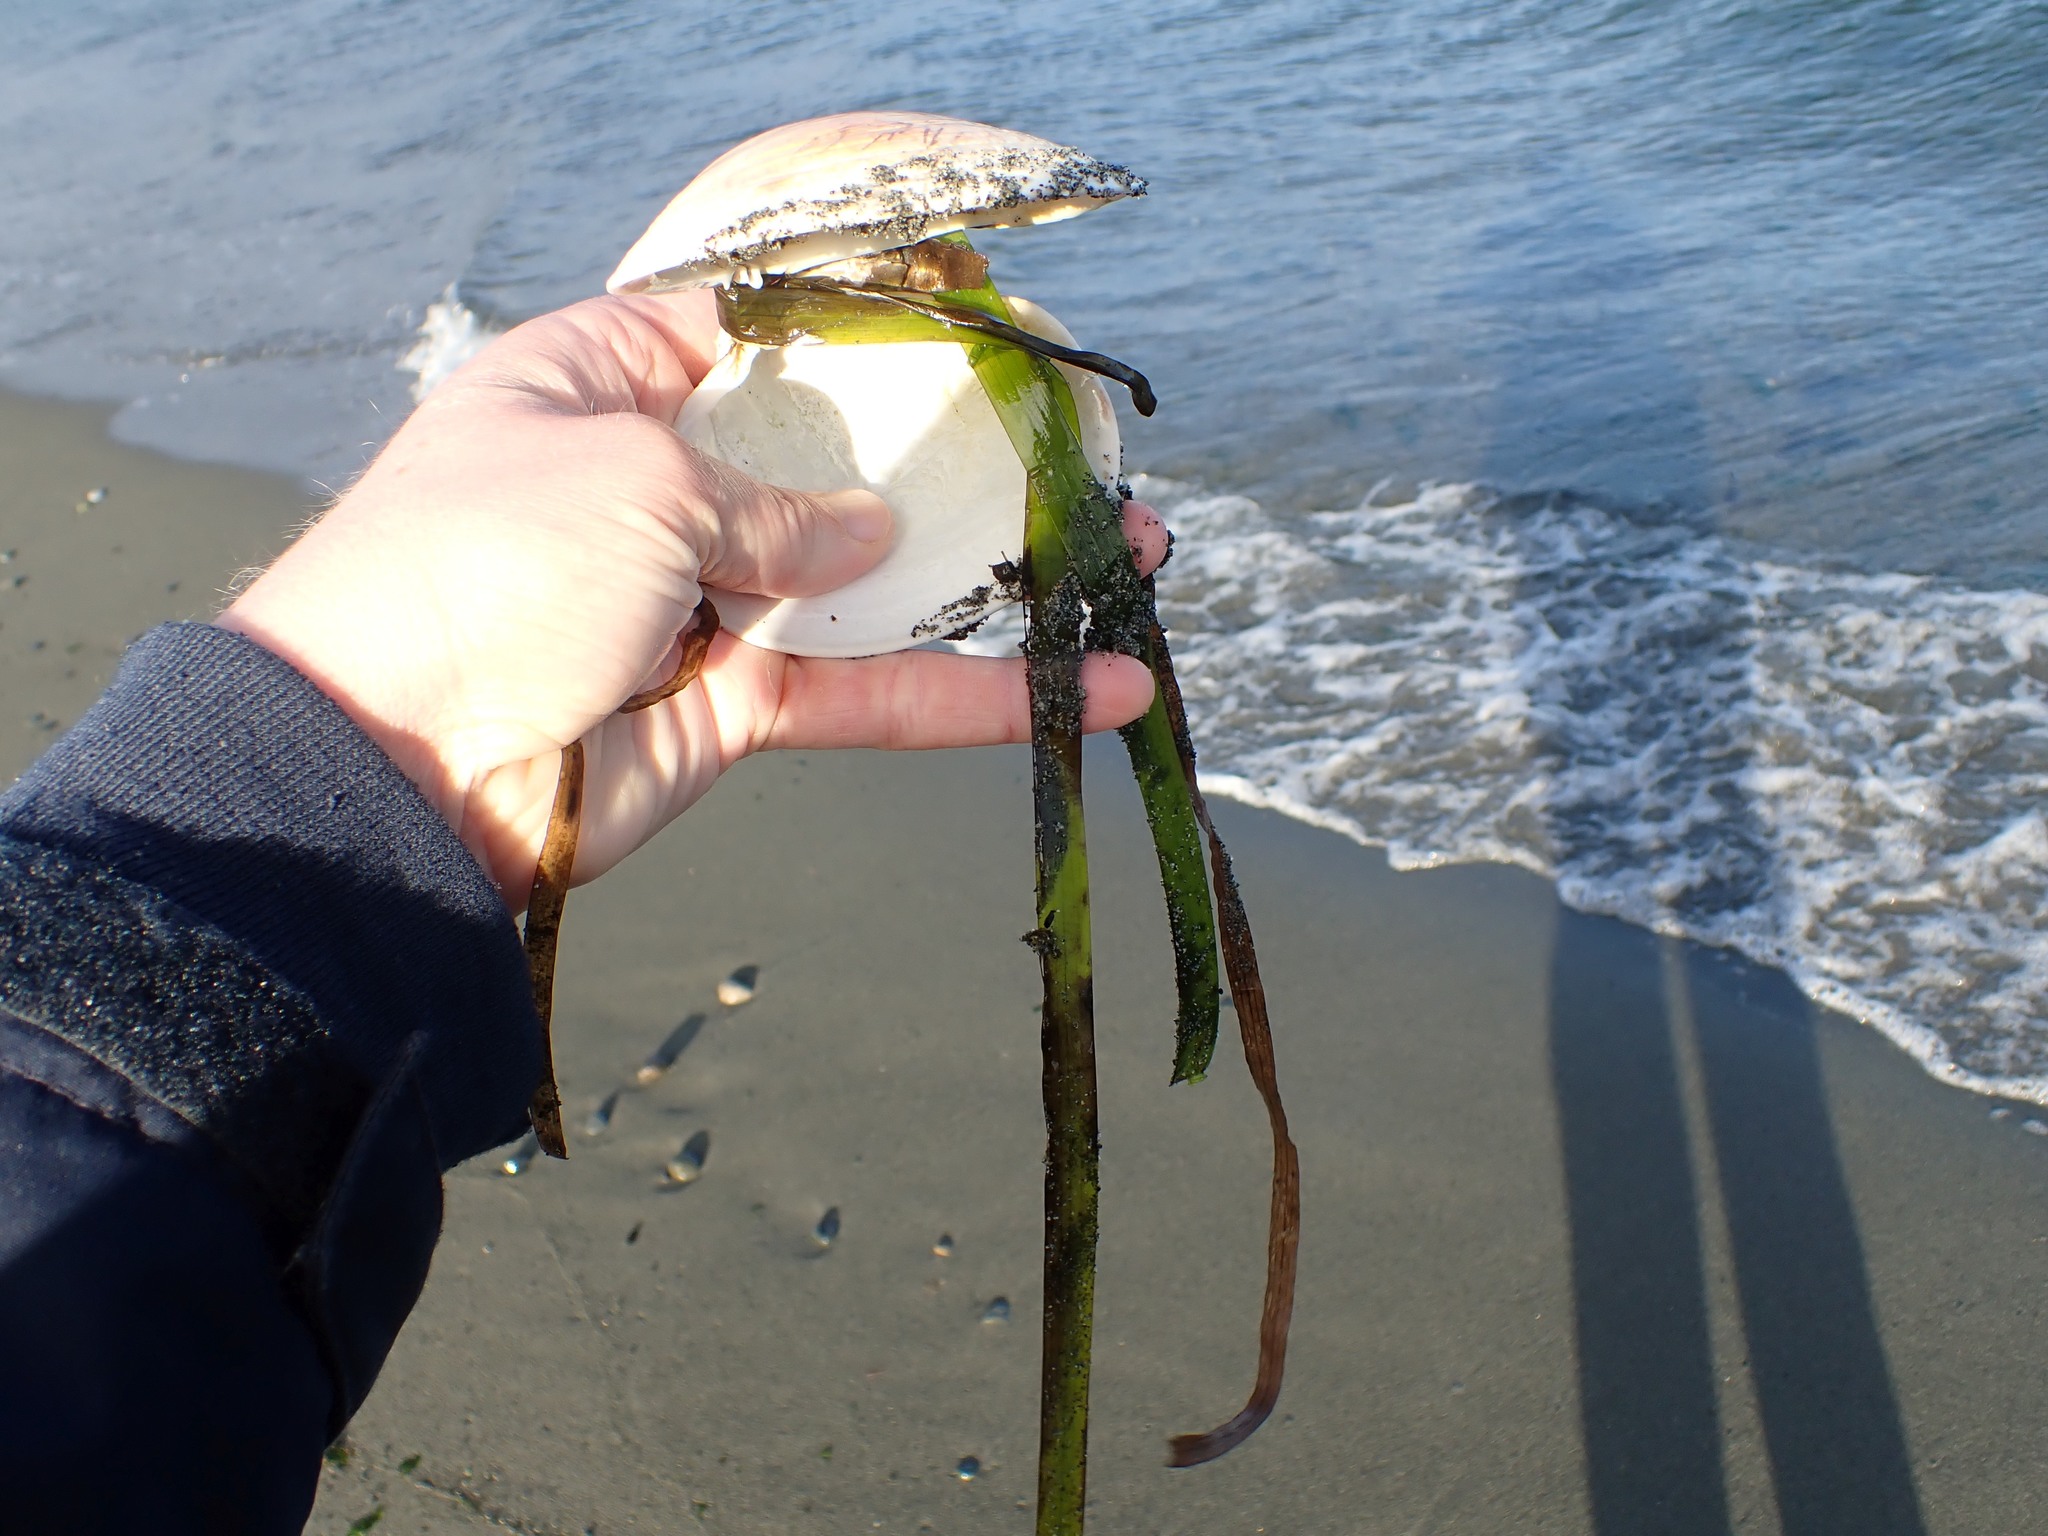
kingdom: Plantae
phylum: Tracheophyta
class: Liliopsida
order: Alismatales
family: Zosteraceae
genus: Zostera
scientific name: Zostera marina
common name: Eelgrass
